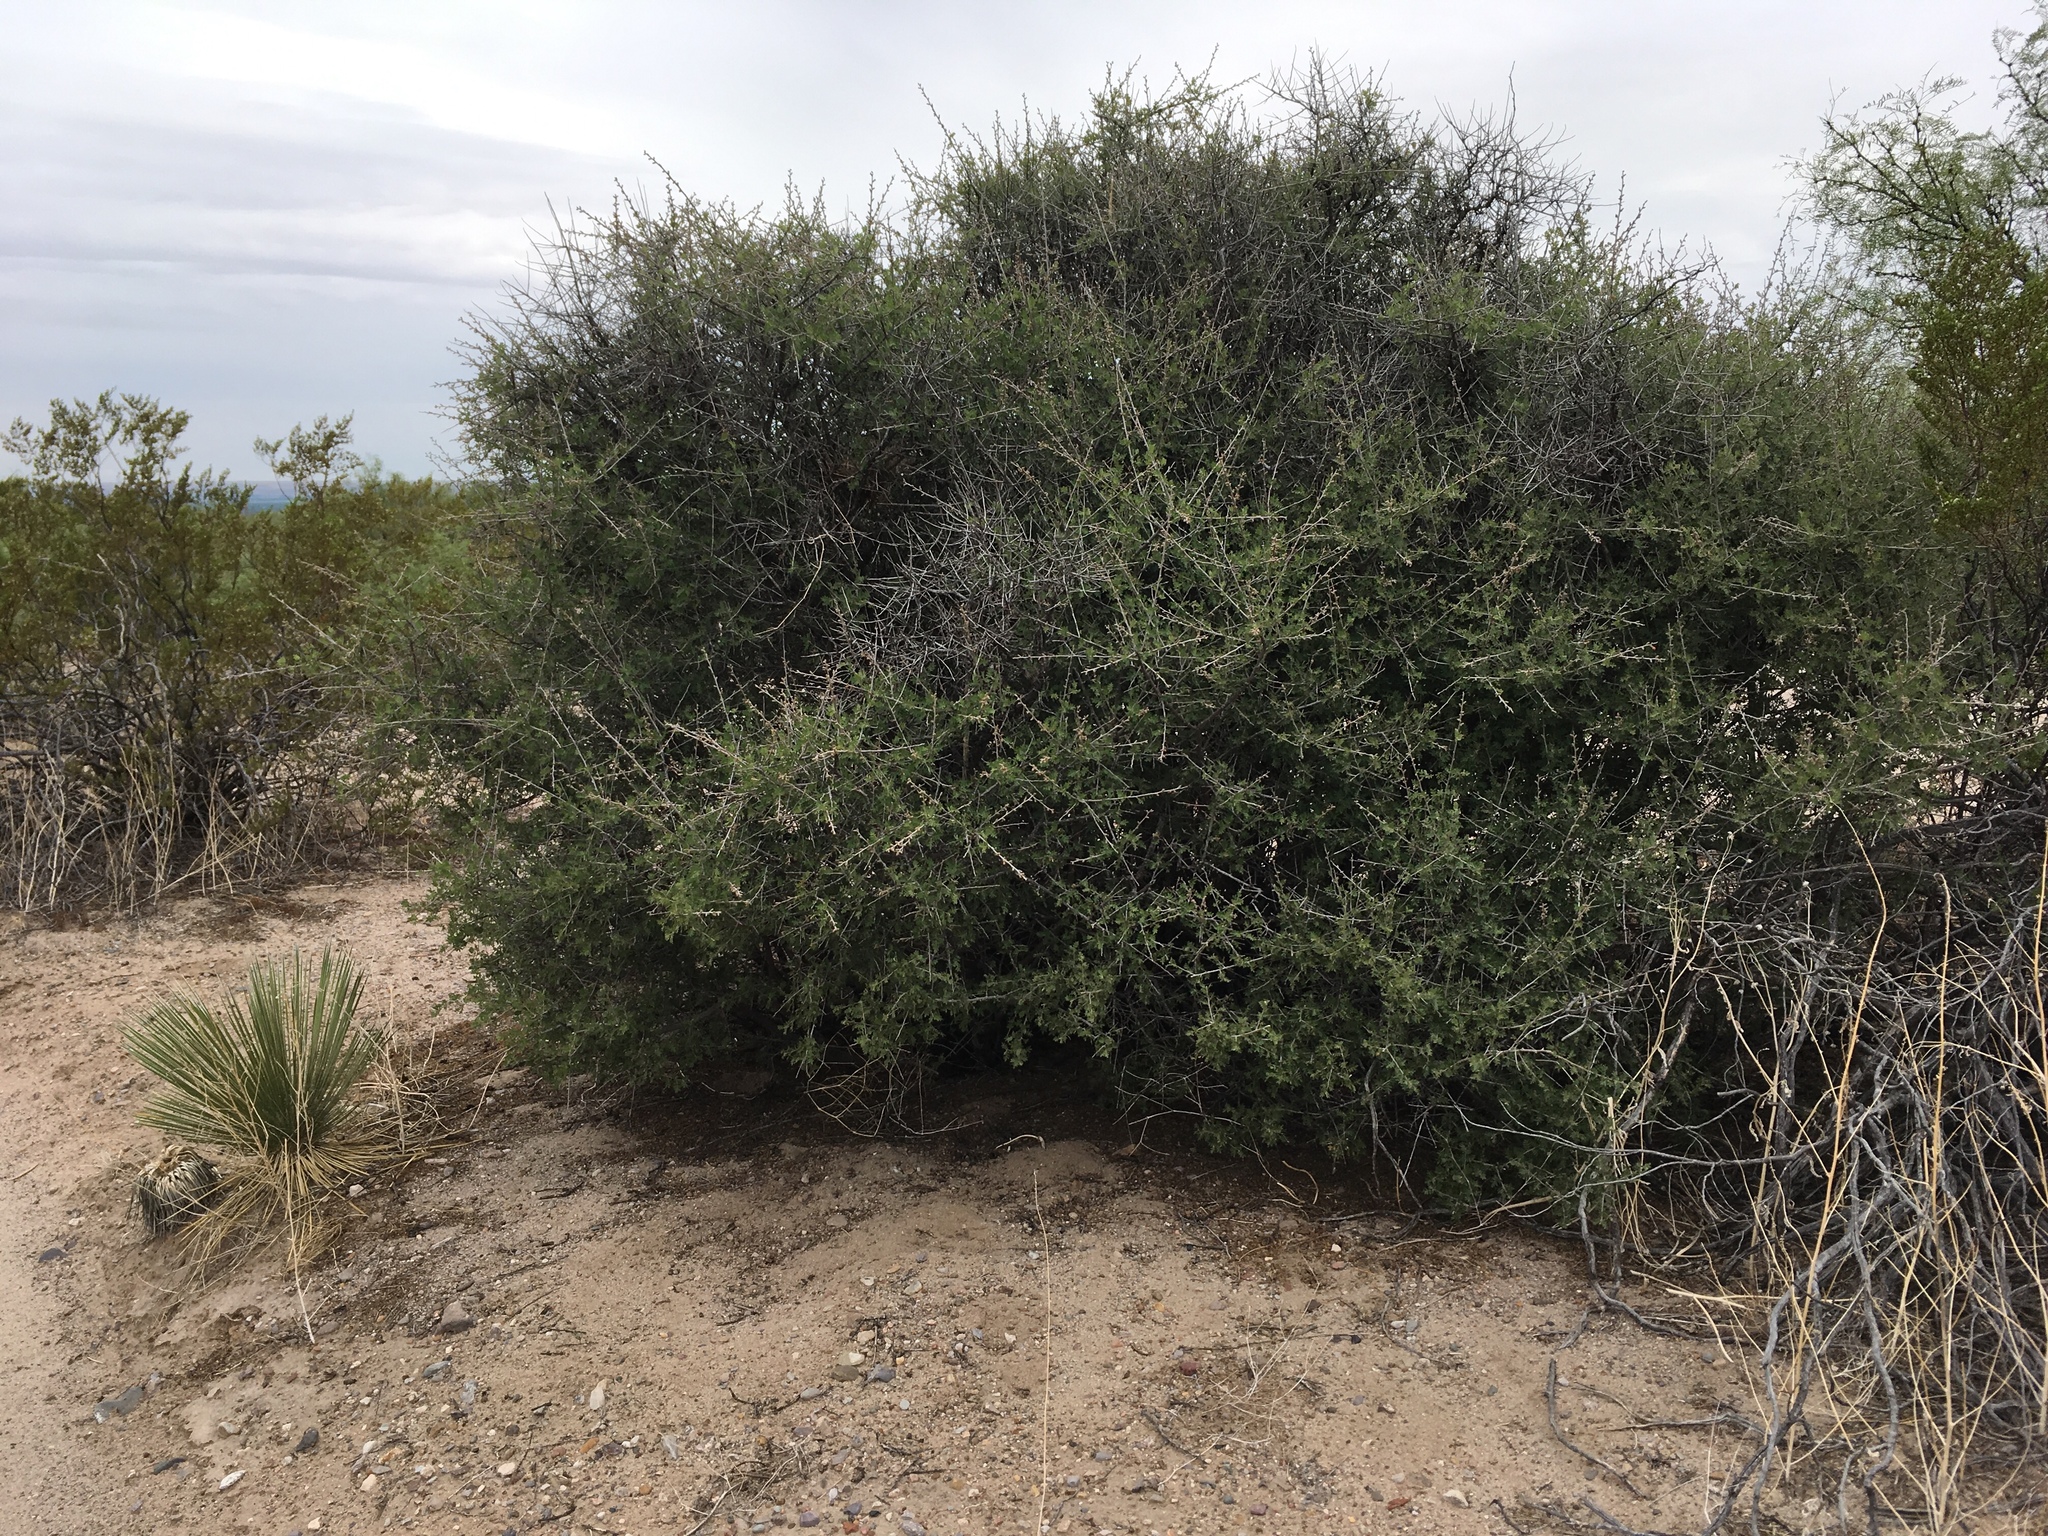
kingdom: Plantae
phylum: Tracheophyta
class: Magnoliopsida
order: Sapindales
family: Anacardiaceae
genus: Rhus
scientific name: Rhus microphylla
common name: Desert sumac
